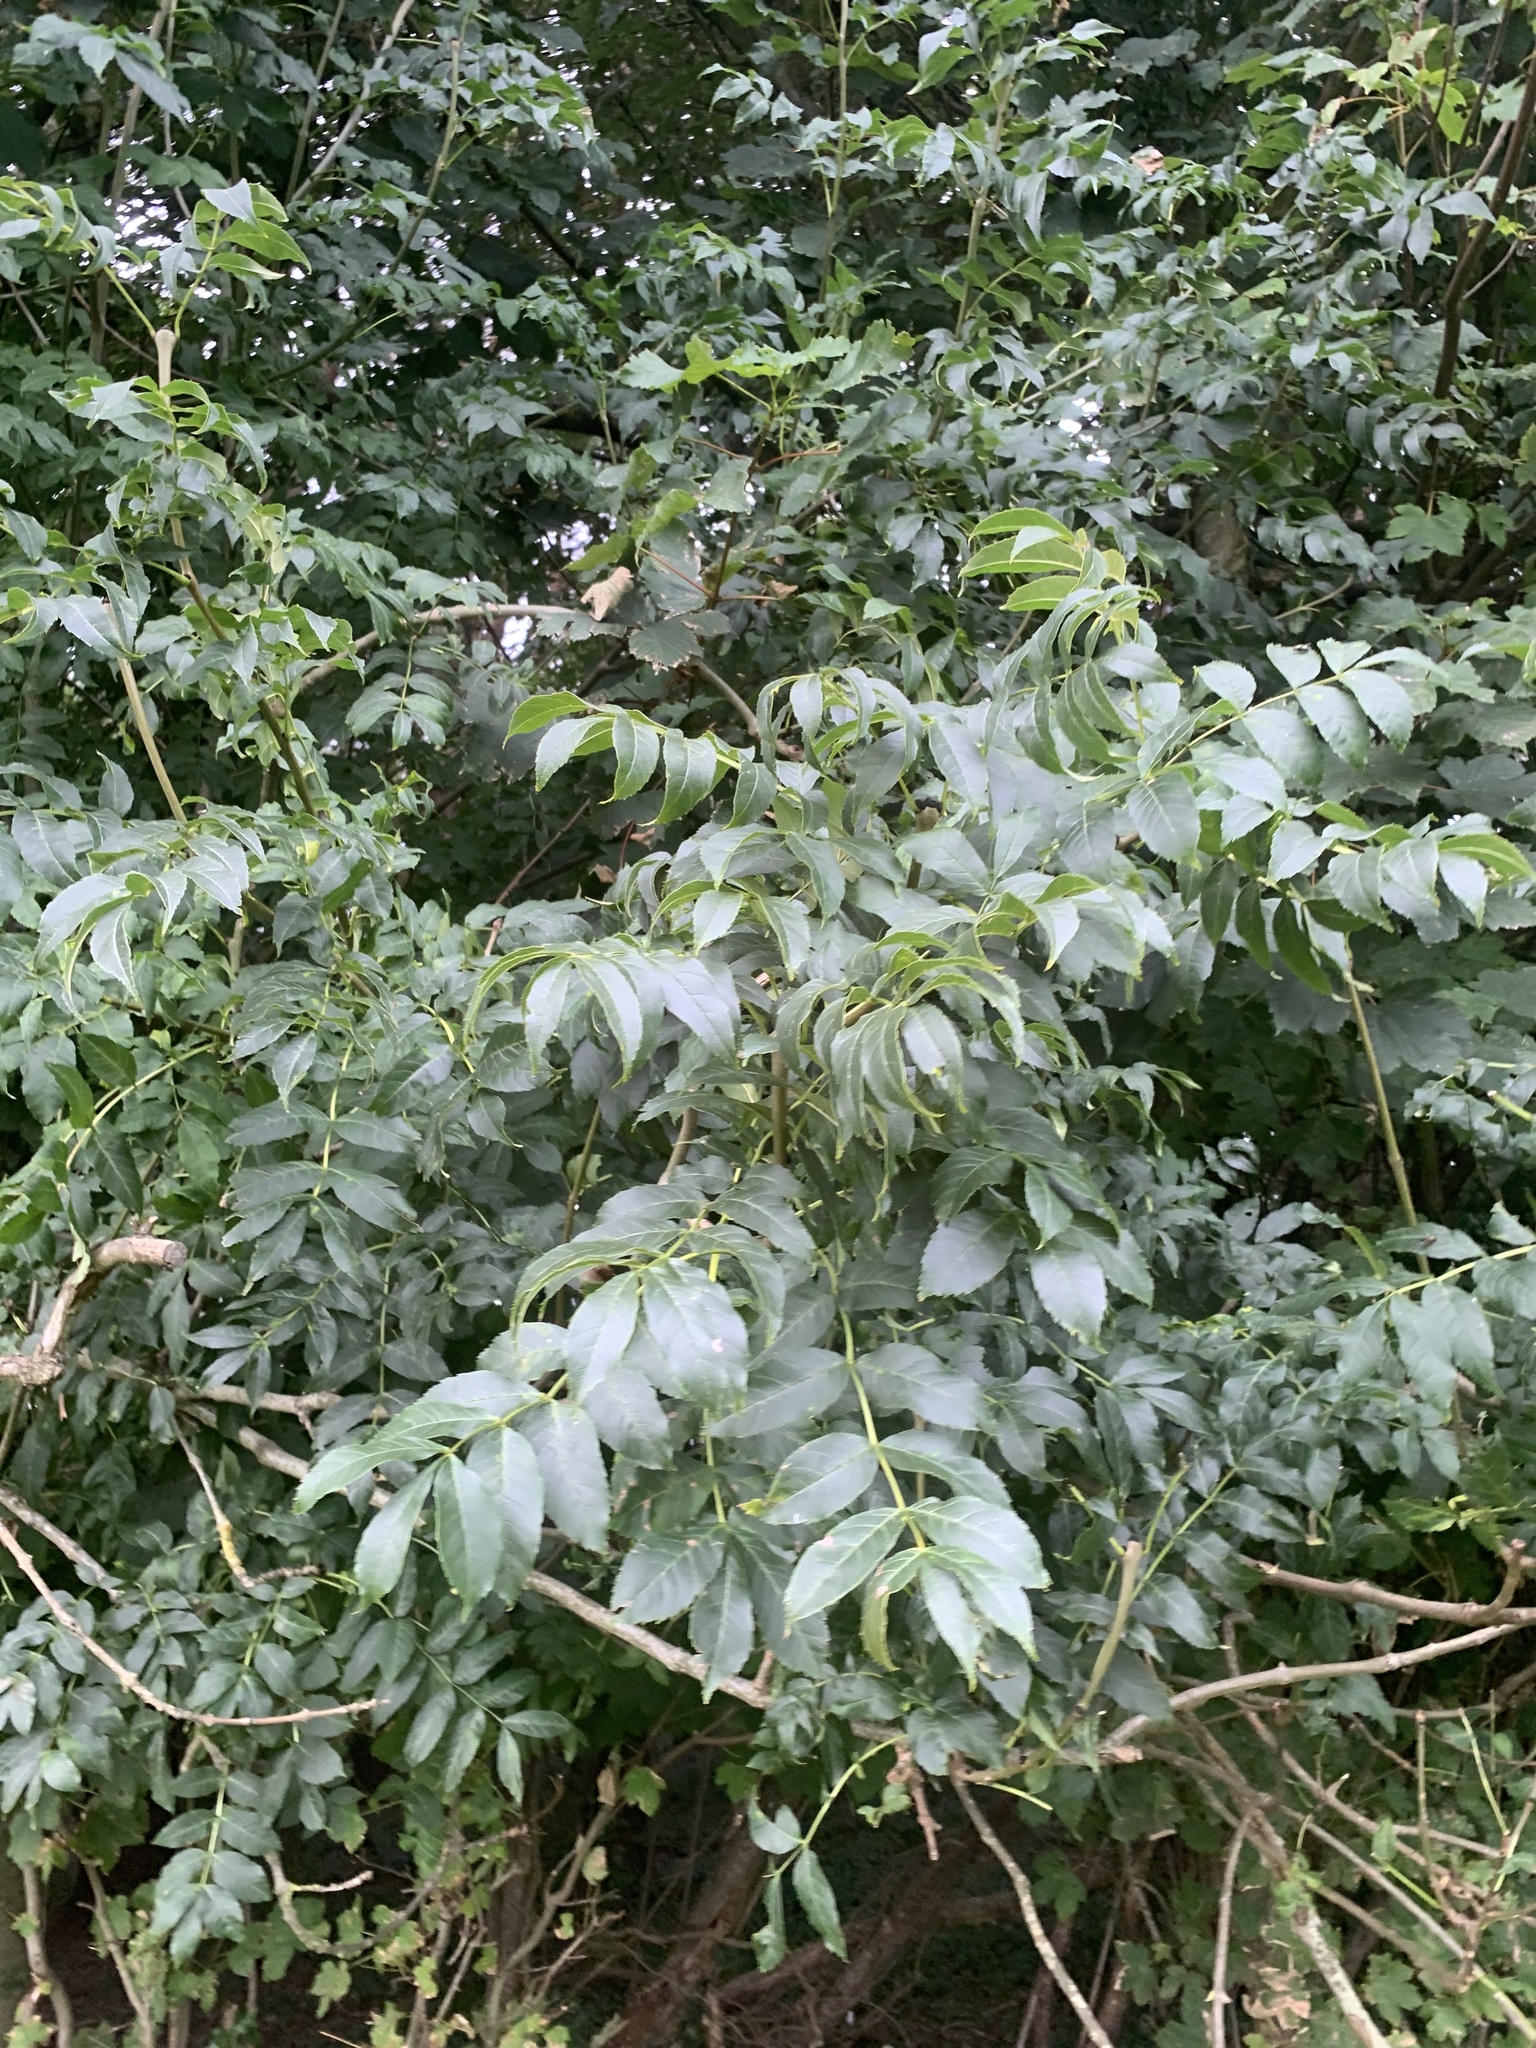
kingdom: Plantae
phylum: Tracheophyta
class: Magnoliopsida
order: Lamiales
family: Oleaceae
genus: Fraxinus
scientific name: Fraxinus excelsior
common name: European ash
